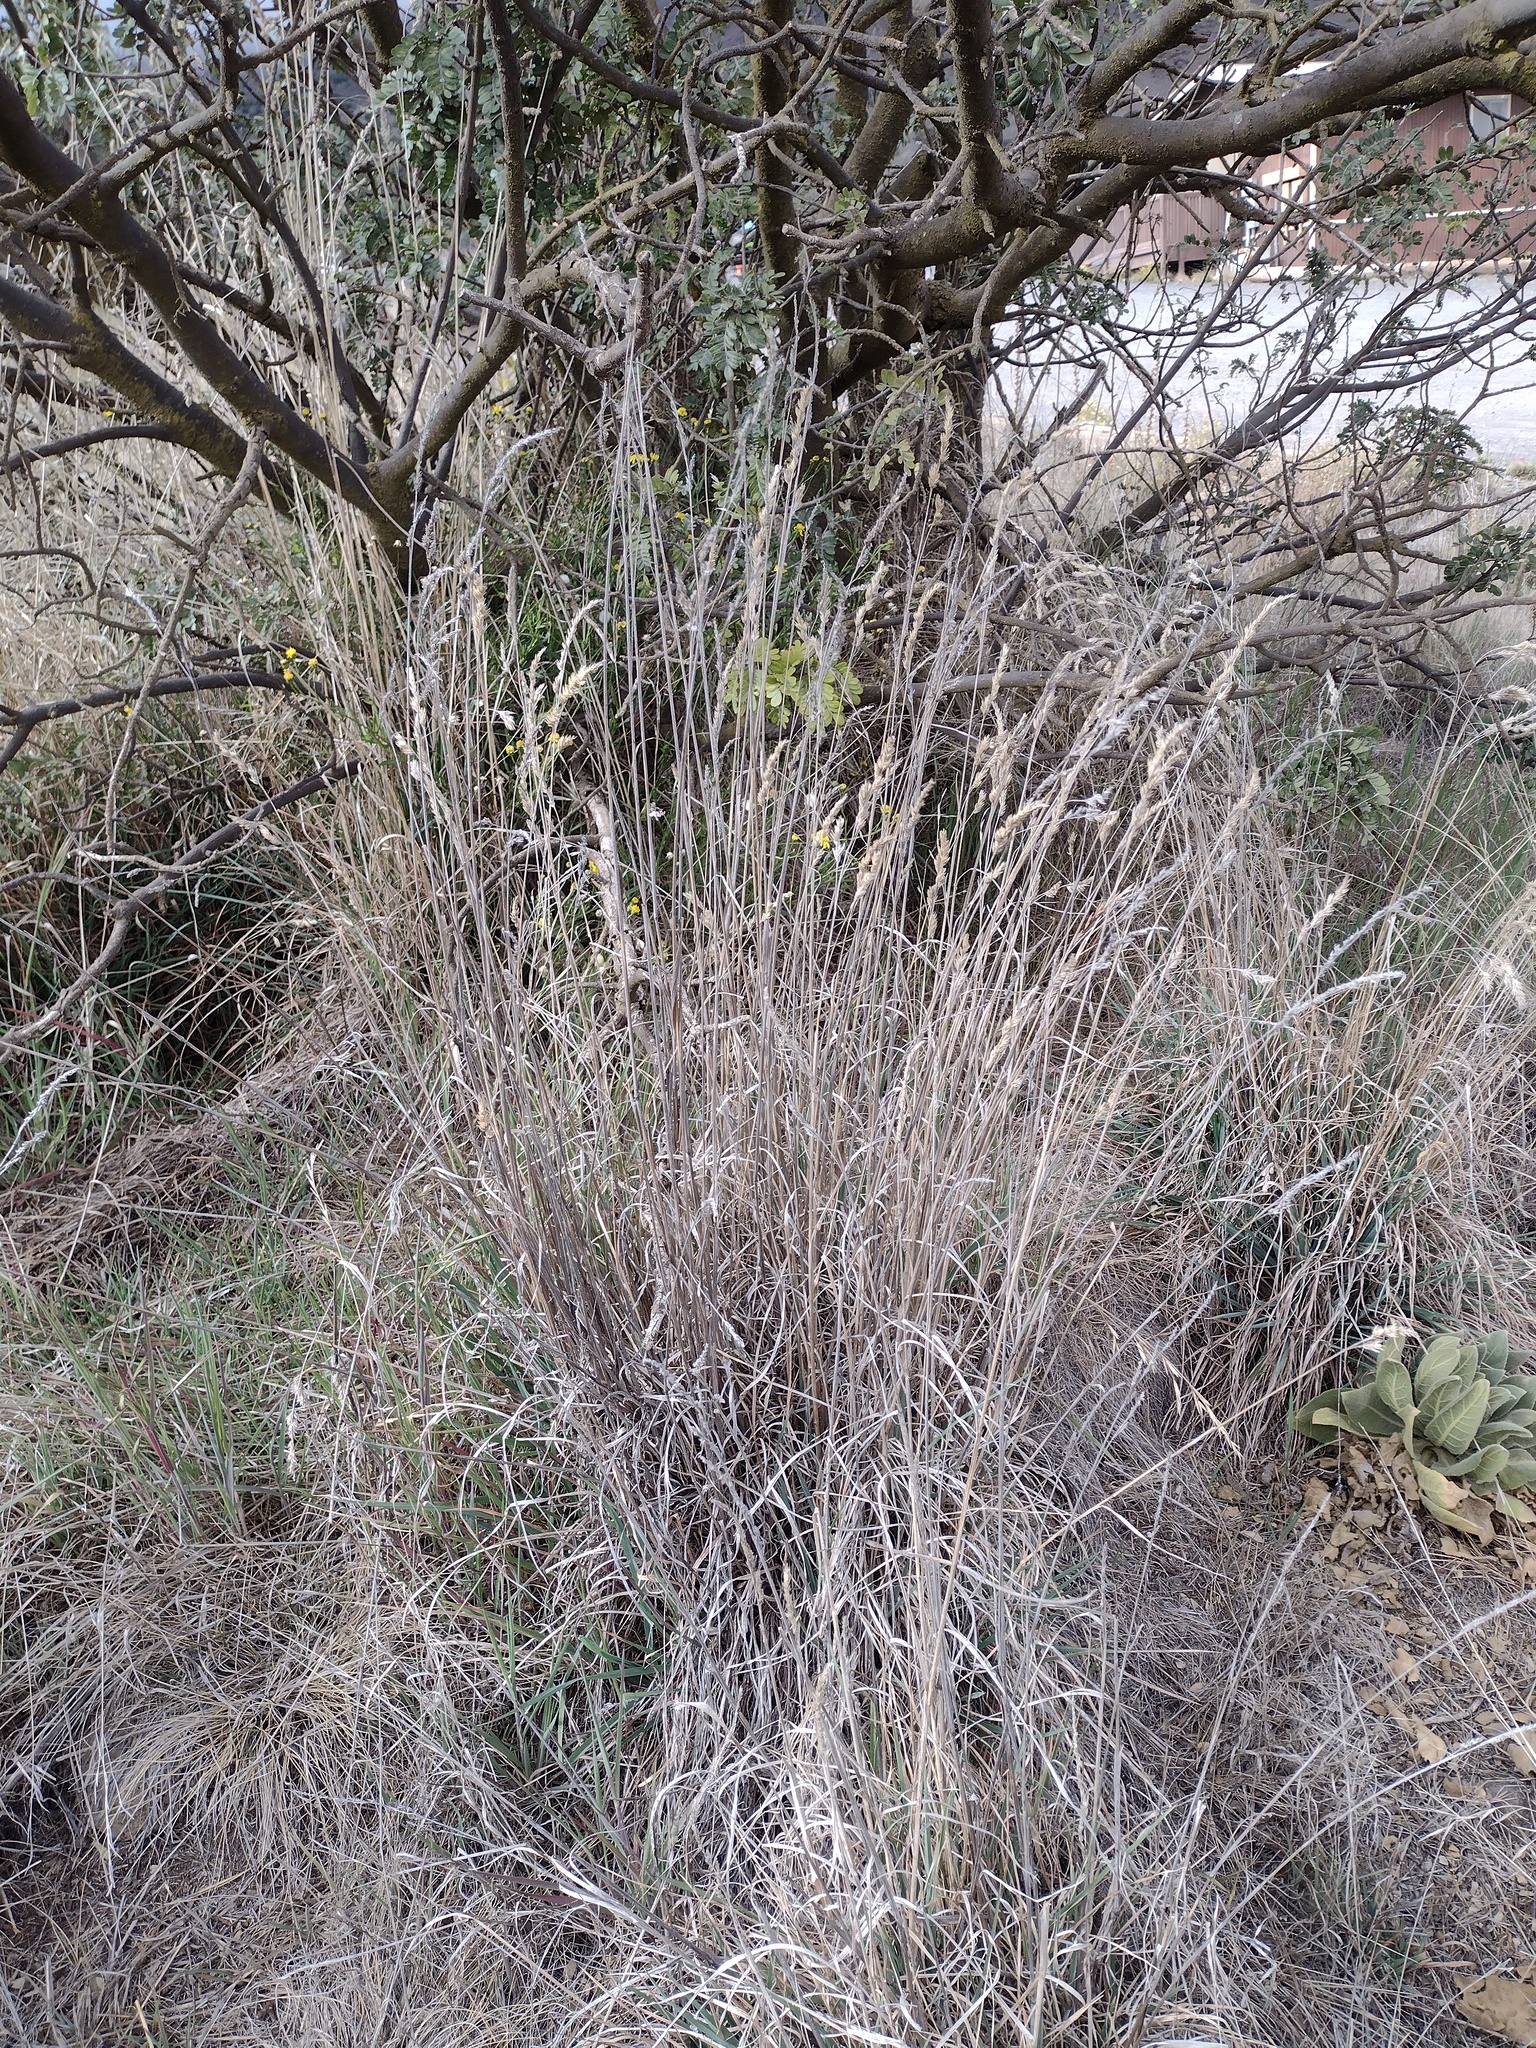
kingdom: Plantae
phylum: Tracheophyta
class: Liliopsida
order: Poales
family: Poaceae
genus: Dactylis
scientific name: Dactylis glomerata
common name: Orchardgrass
